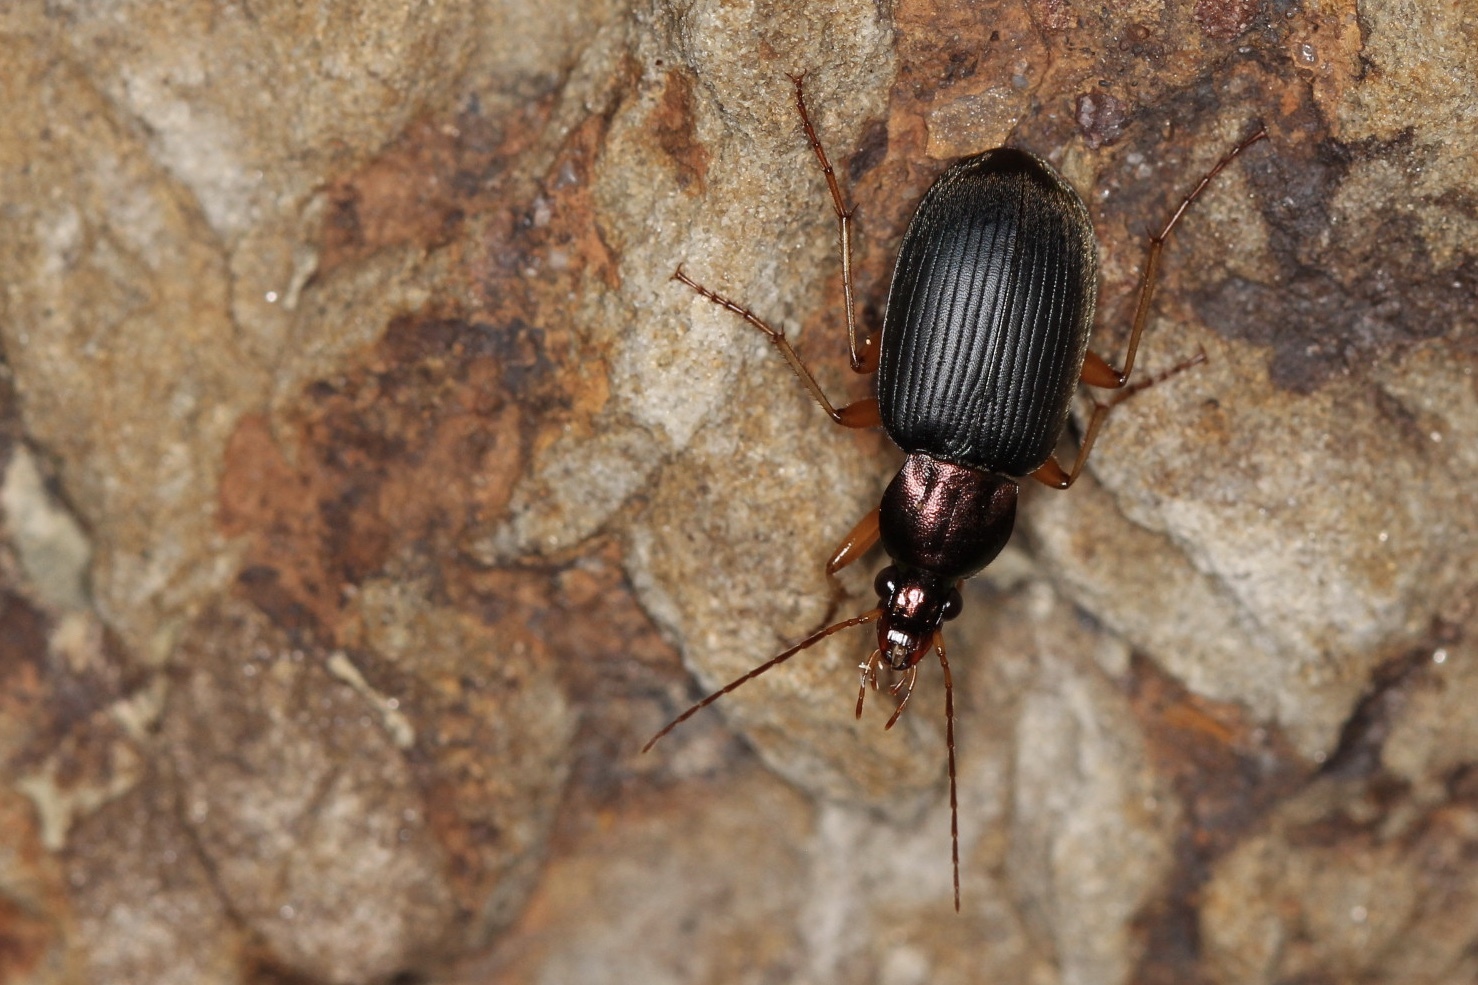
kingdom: Animalia
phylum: Arthropoda
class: Insecta
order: Coleoptera
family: Carabidae
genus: Chlaenius
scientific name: Chlaenius tricolor
